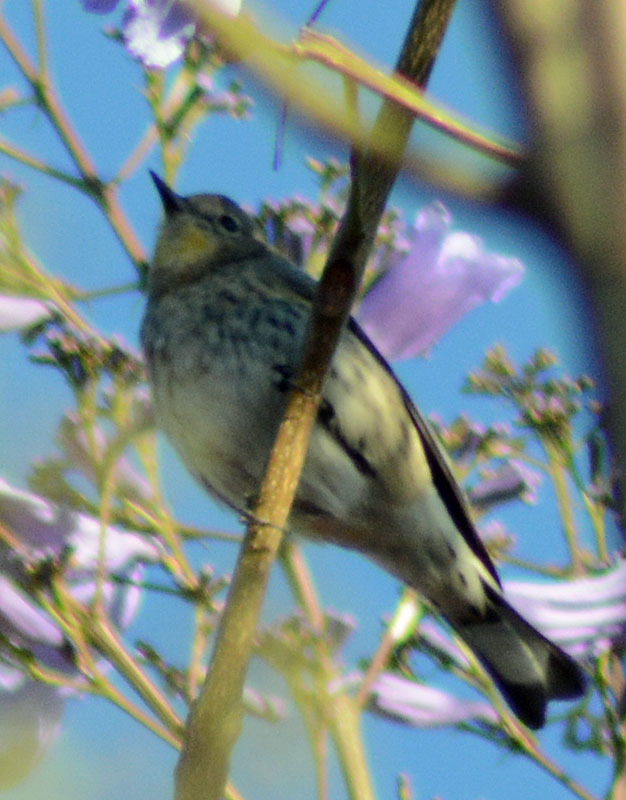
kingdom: Animalia
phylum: Chordata
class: Aves
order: Passeriformes
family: Parulidae
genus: Setophaga
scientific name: Setophaga coronata
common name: Myrtle warbler
